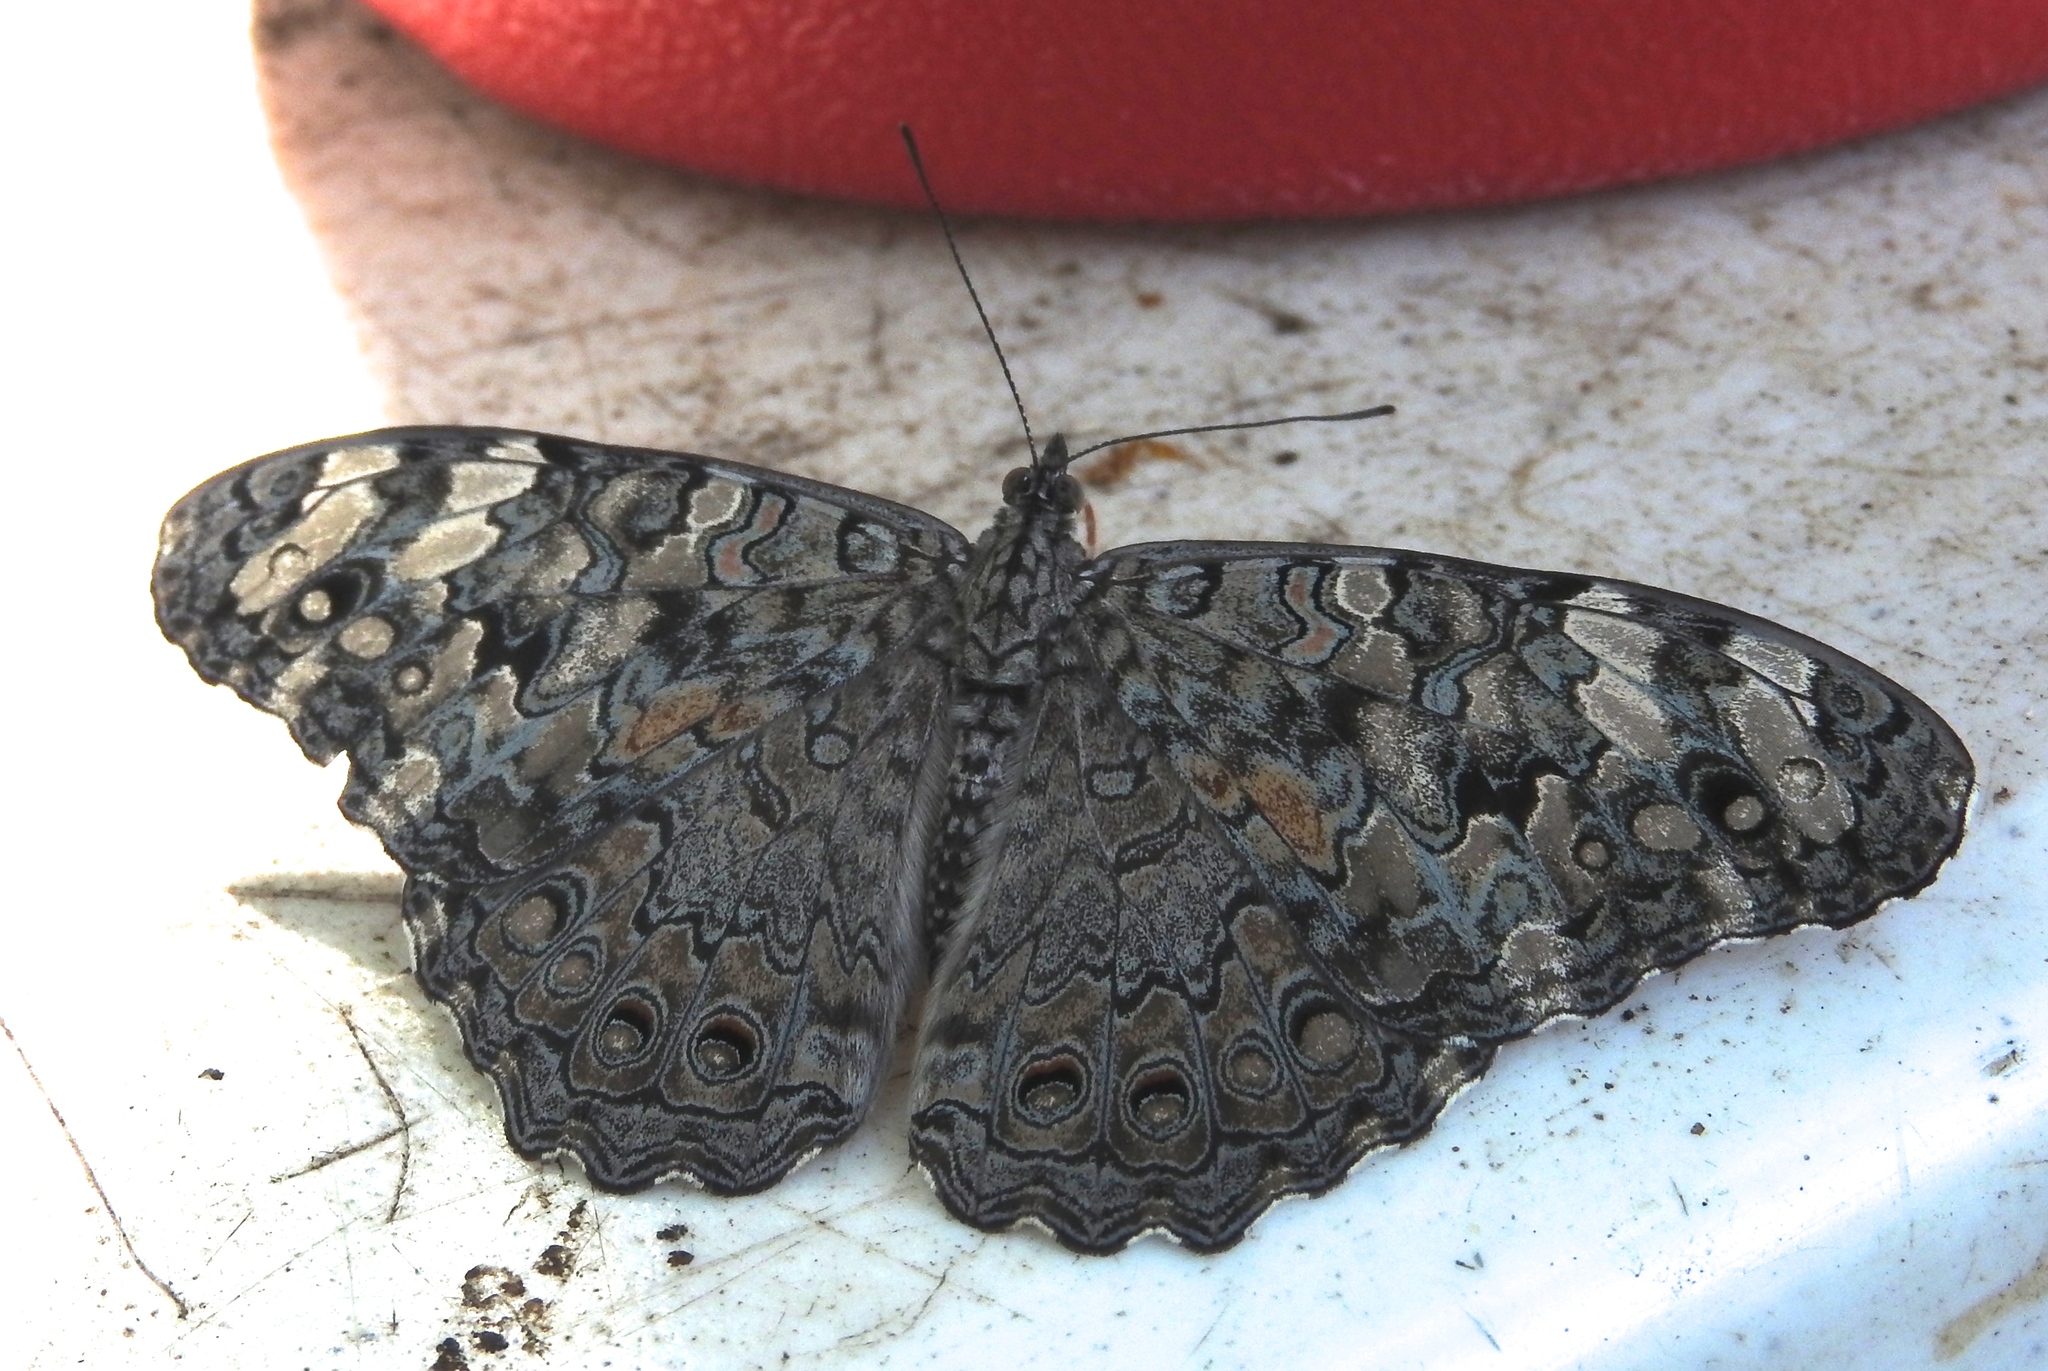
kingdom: Animalia
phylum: Arthropoda
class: Insecta
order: Lepidoptera
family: Nymphalidae
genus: Hamadryas
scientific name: Hamadryas februa
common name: Gray cracker
